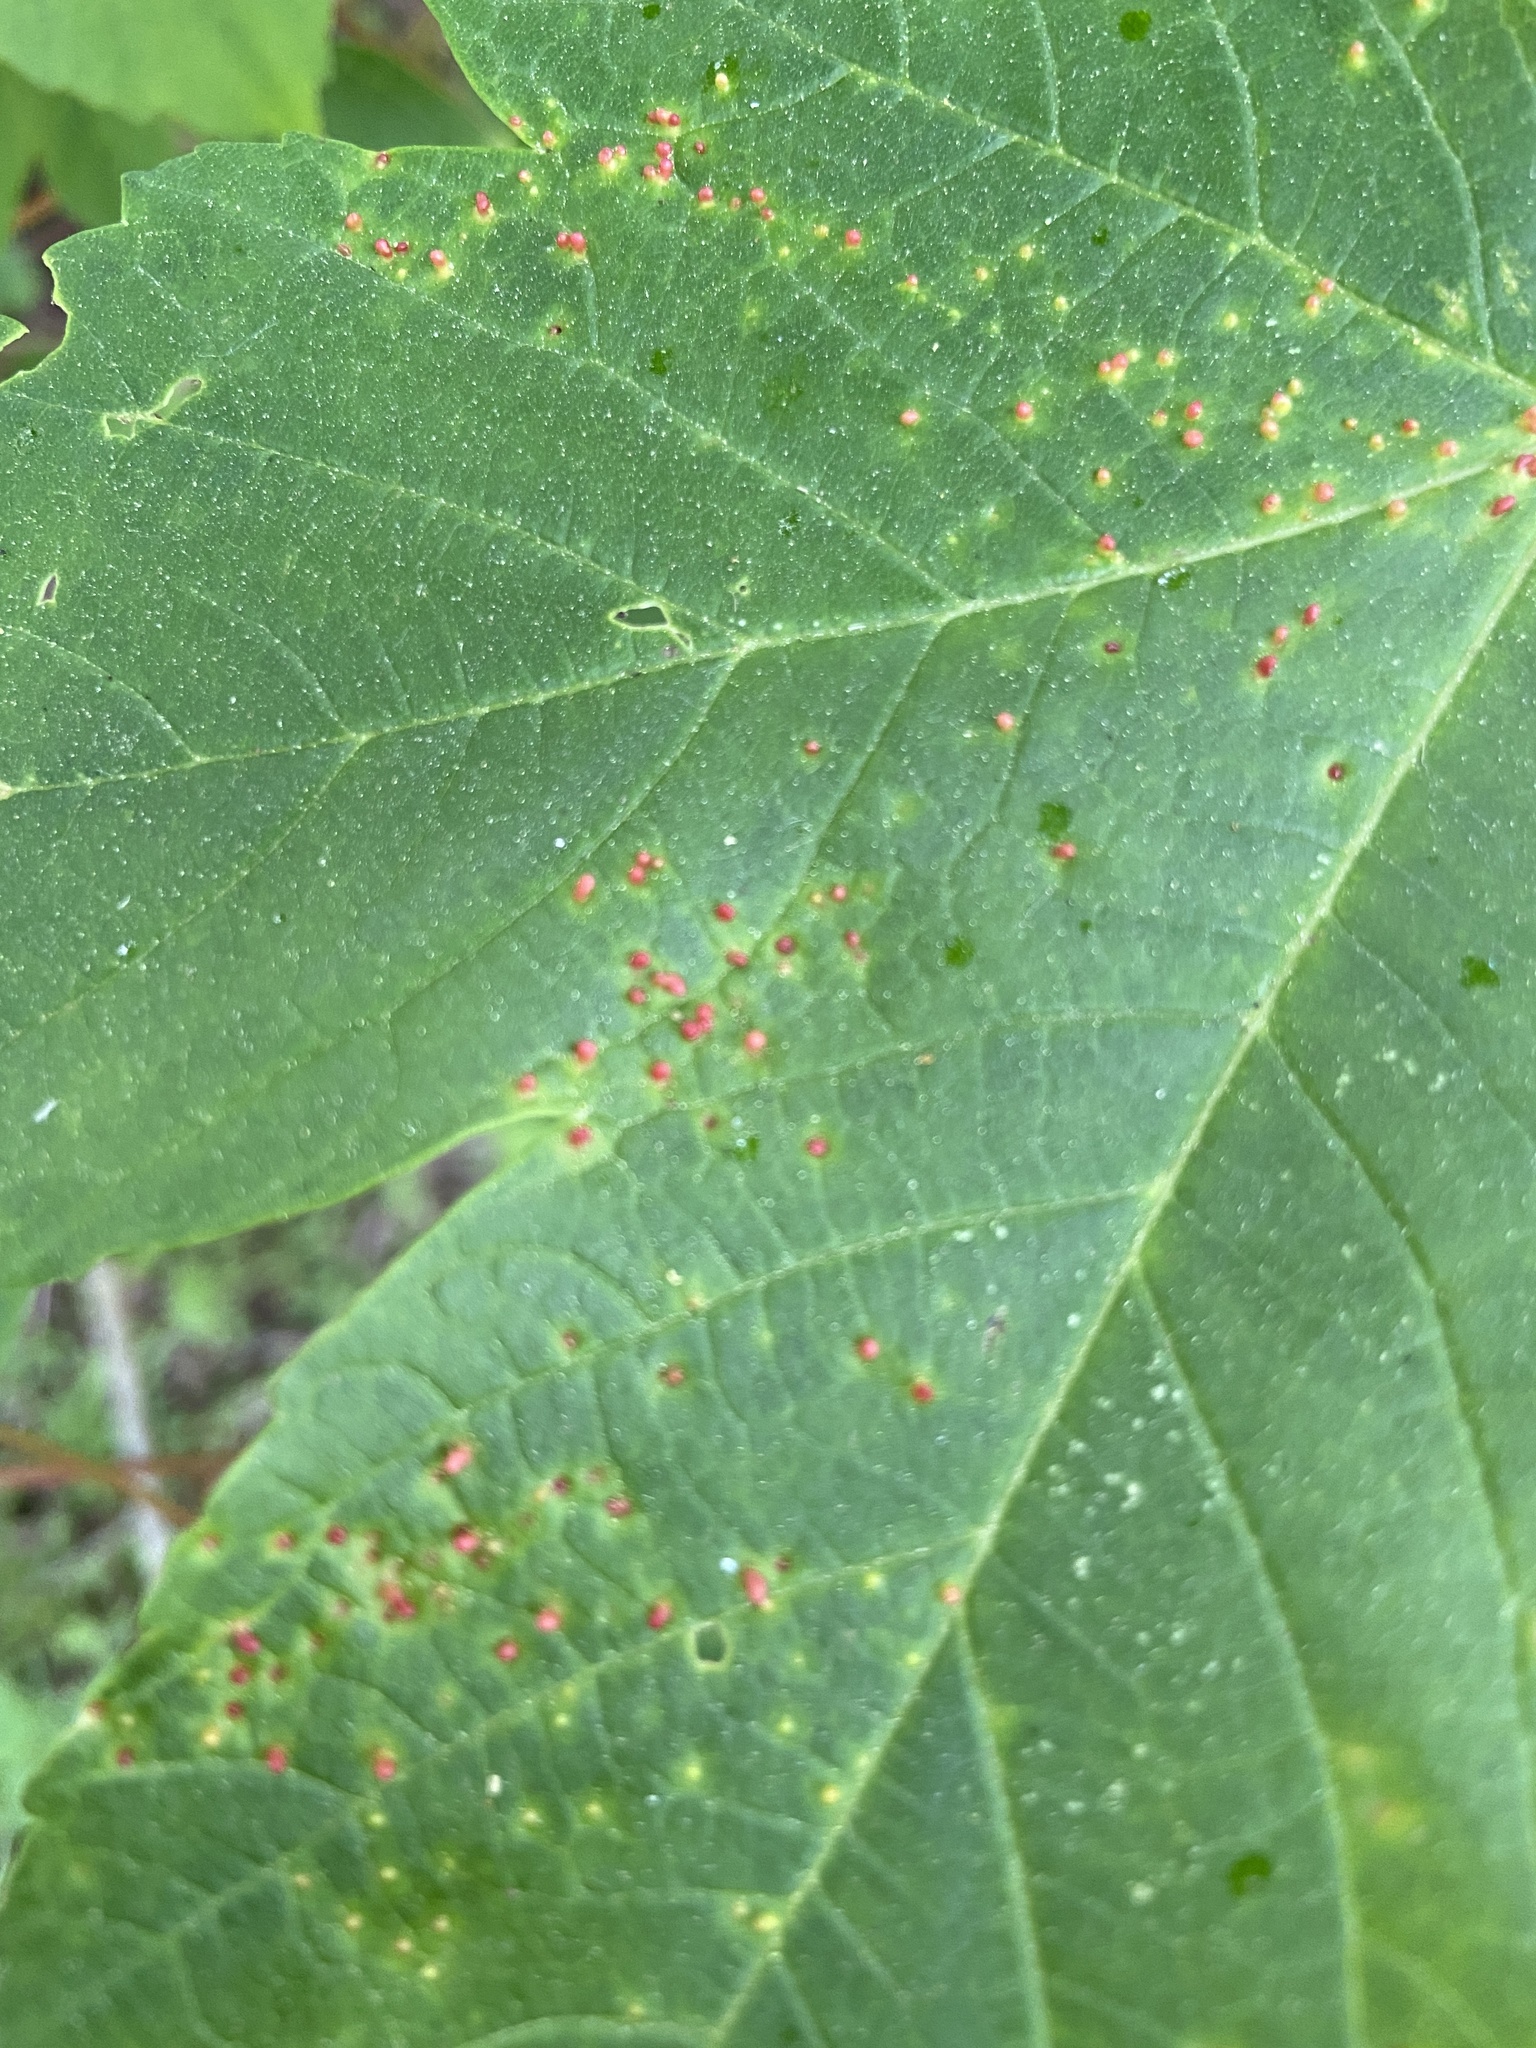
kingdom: Animalia
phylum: Arthropoda
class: Arachnida
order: Trombidiformes
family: Eriophyidae
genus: Aceria
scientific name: Aceria cephaloneus
